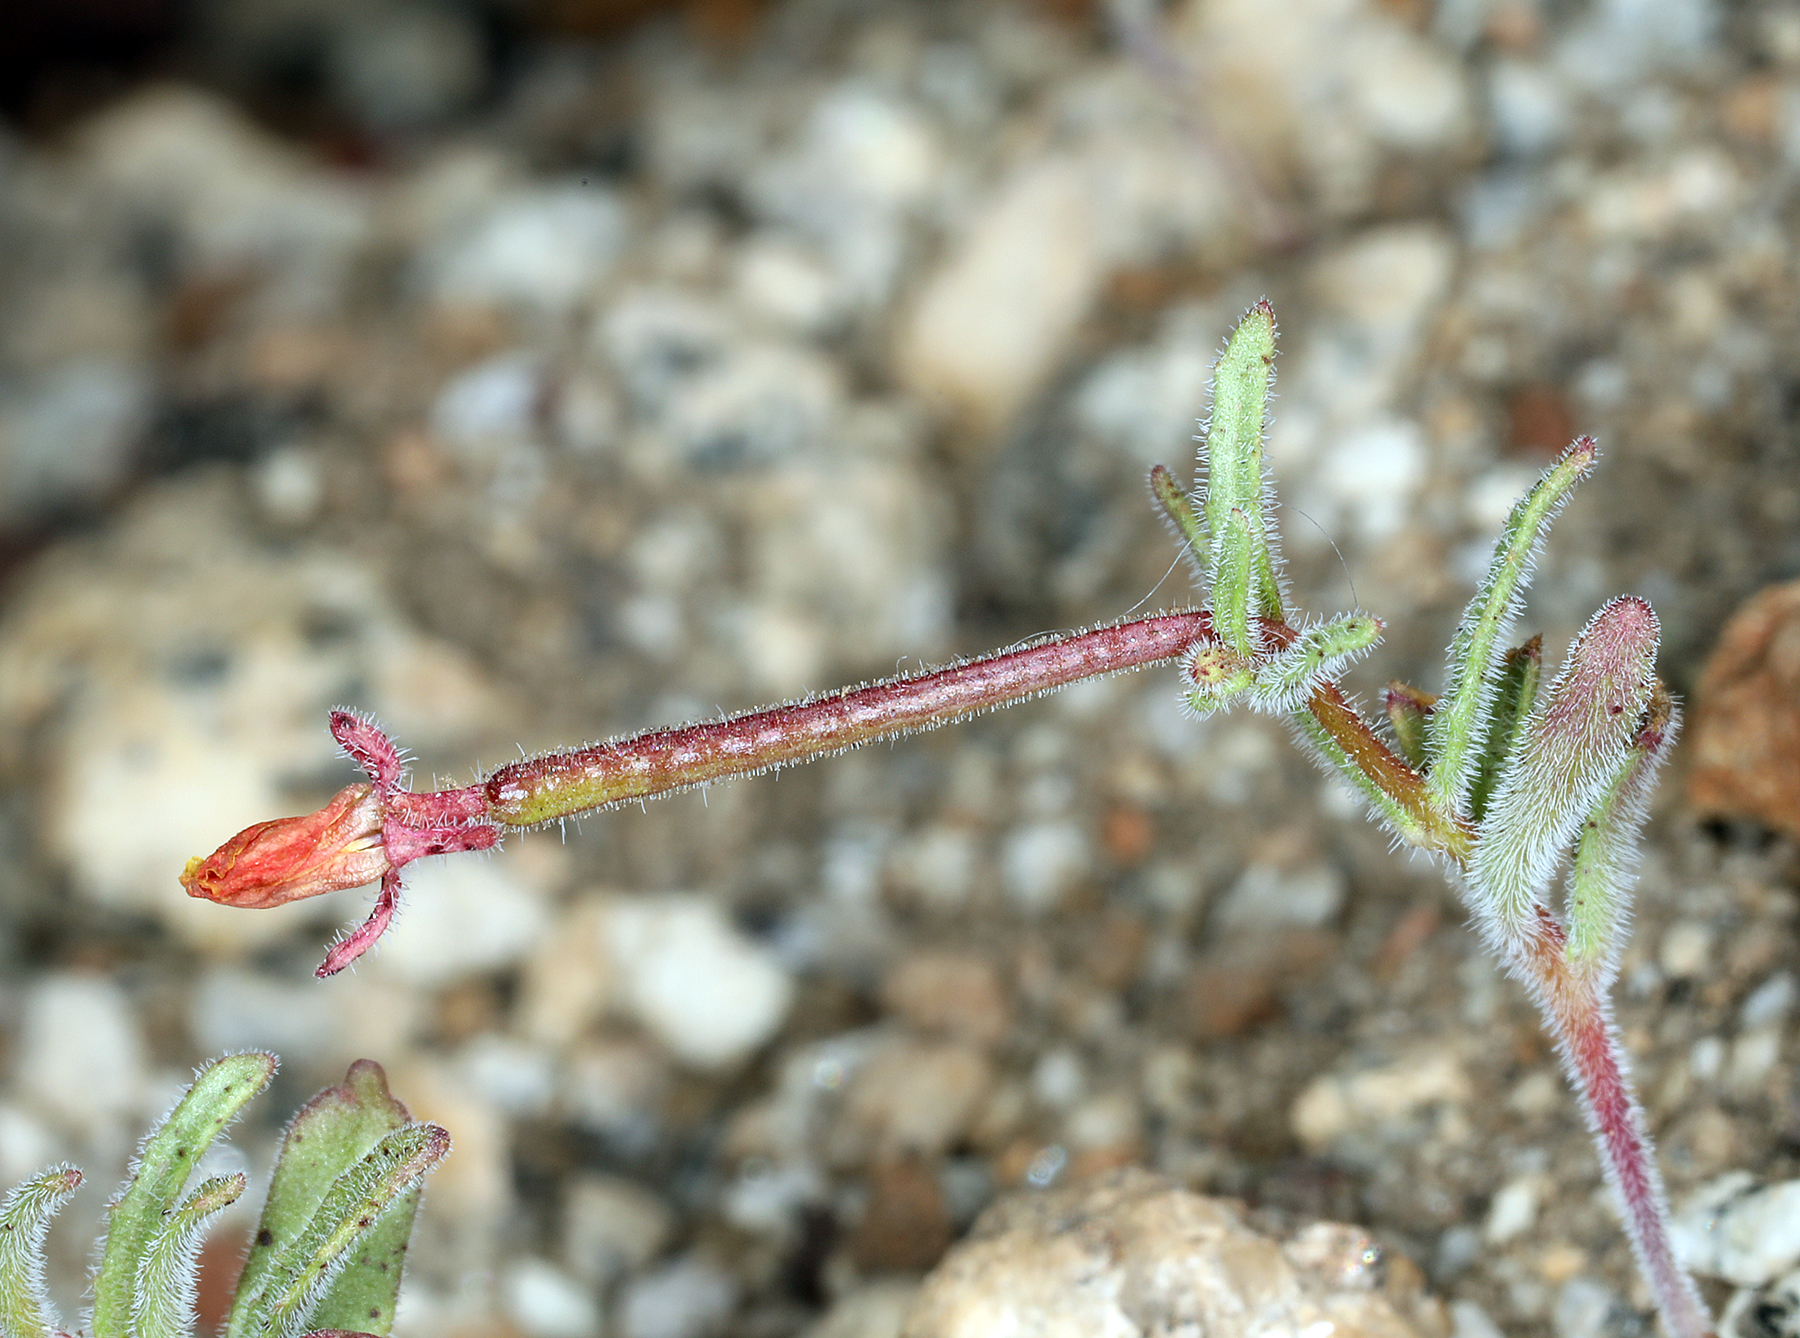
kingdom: Plantae
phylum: Tracheophyta
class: Magnoliopsida
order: Myrtales
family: Onagraceae
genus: Camissonia
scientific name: Camissonia pusilla
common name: Obscure camissonia
